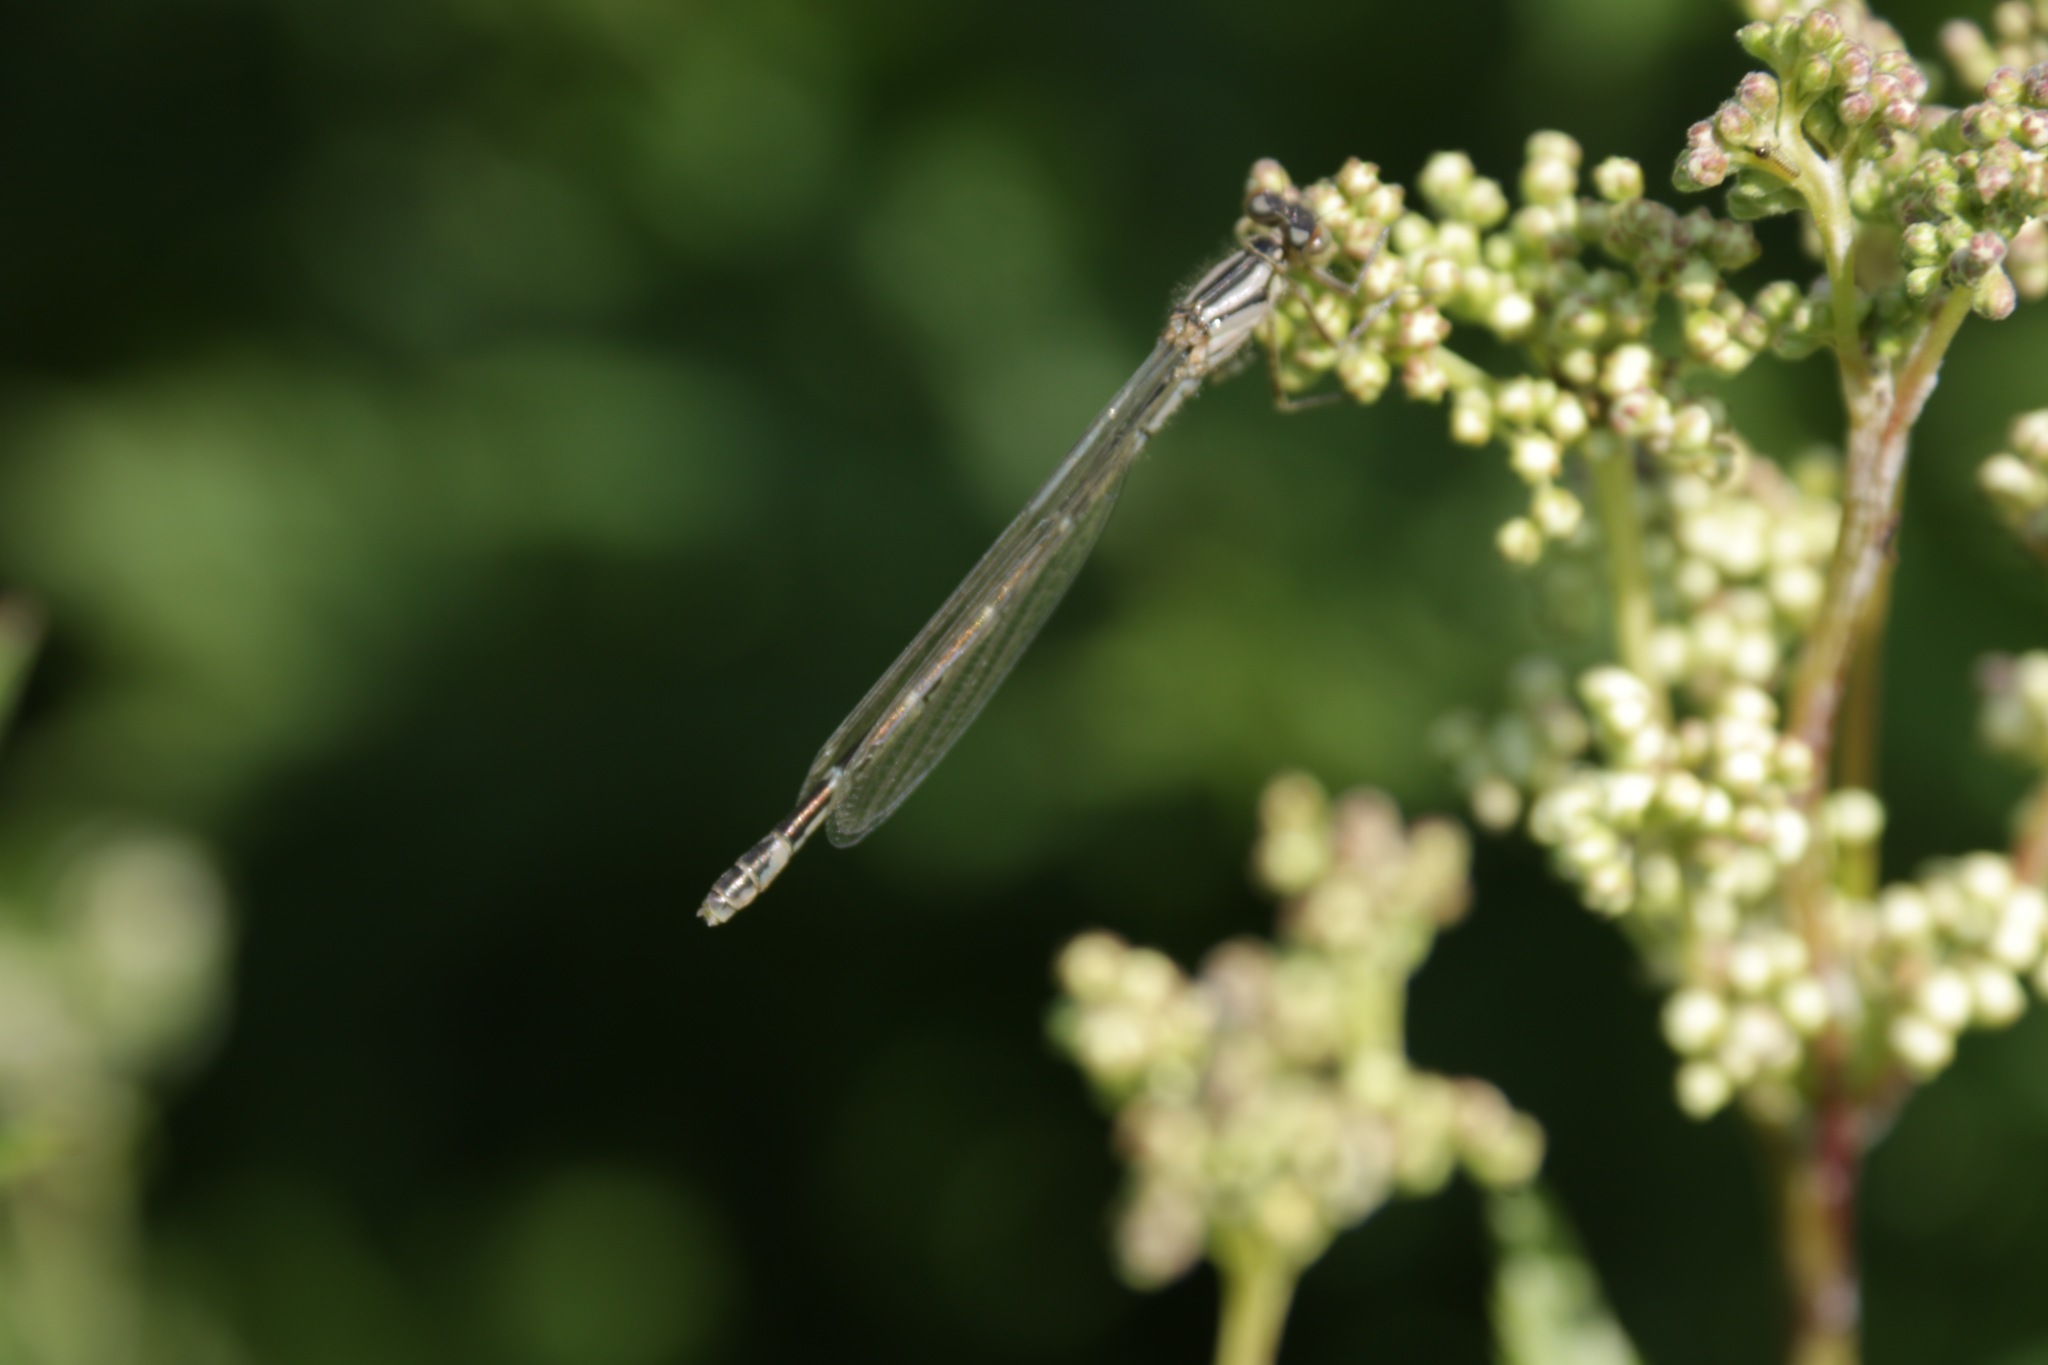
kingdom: Animalia
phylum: Arthropoda
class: Insecta
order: Odonata
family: Coenagrionidae
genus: Enallagma
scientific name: Enallagma cyathigerum
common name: Common blue damselfly
